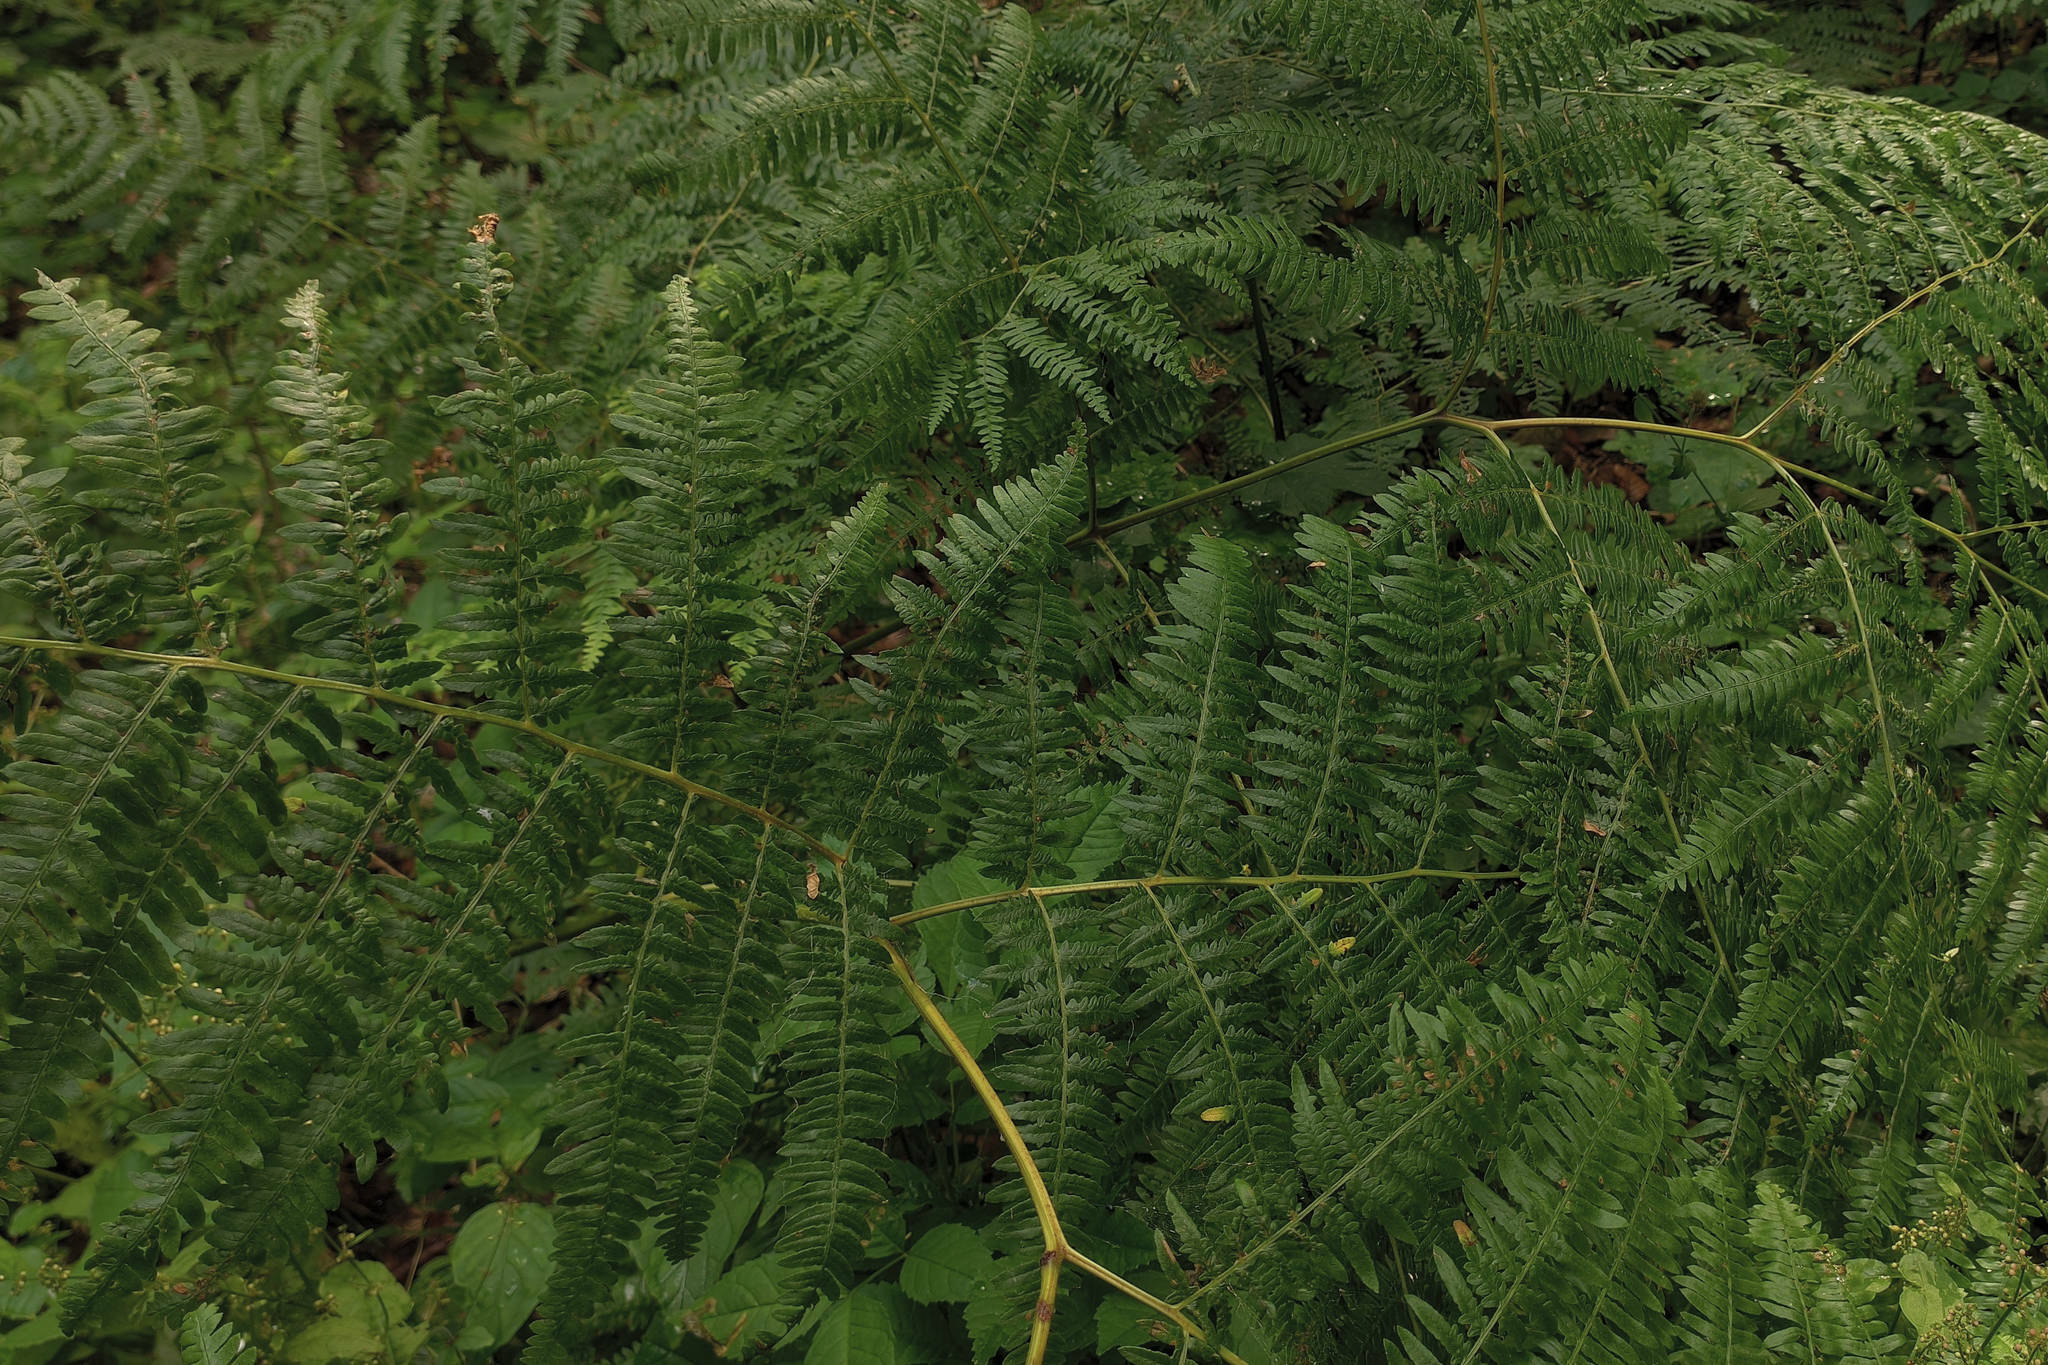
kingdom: Plantae
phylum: Tracheophyta
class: Polypodiopsida
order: Polypodiales
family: Dennstaedtiaceae
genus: Pteridium
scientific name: Pteridium aquilinum
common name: Bracken
